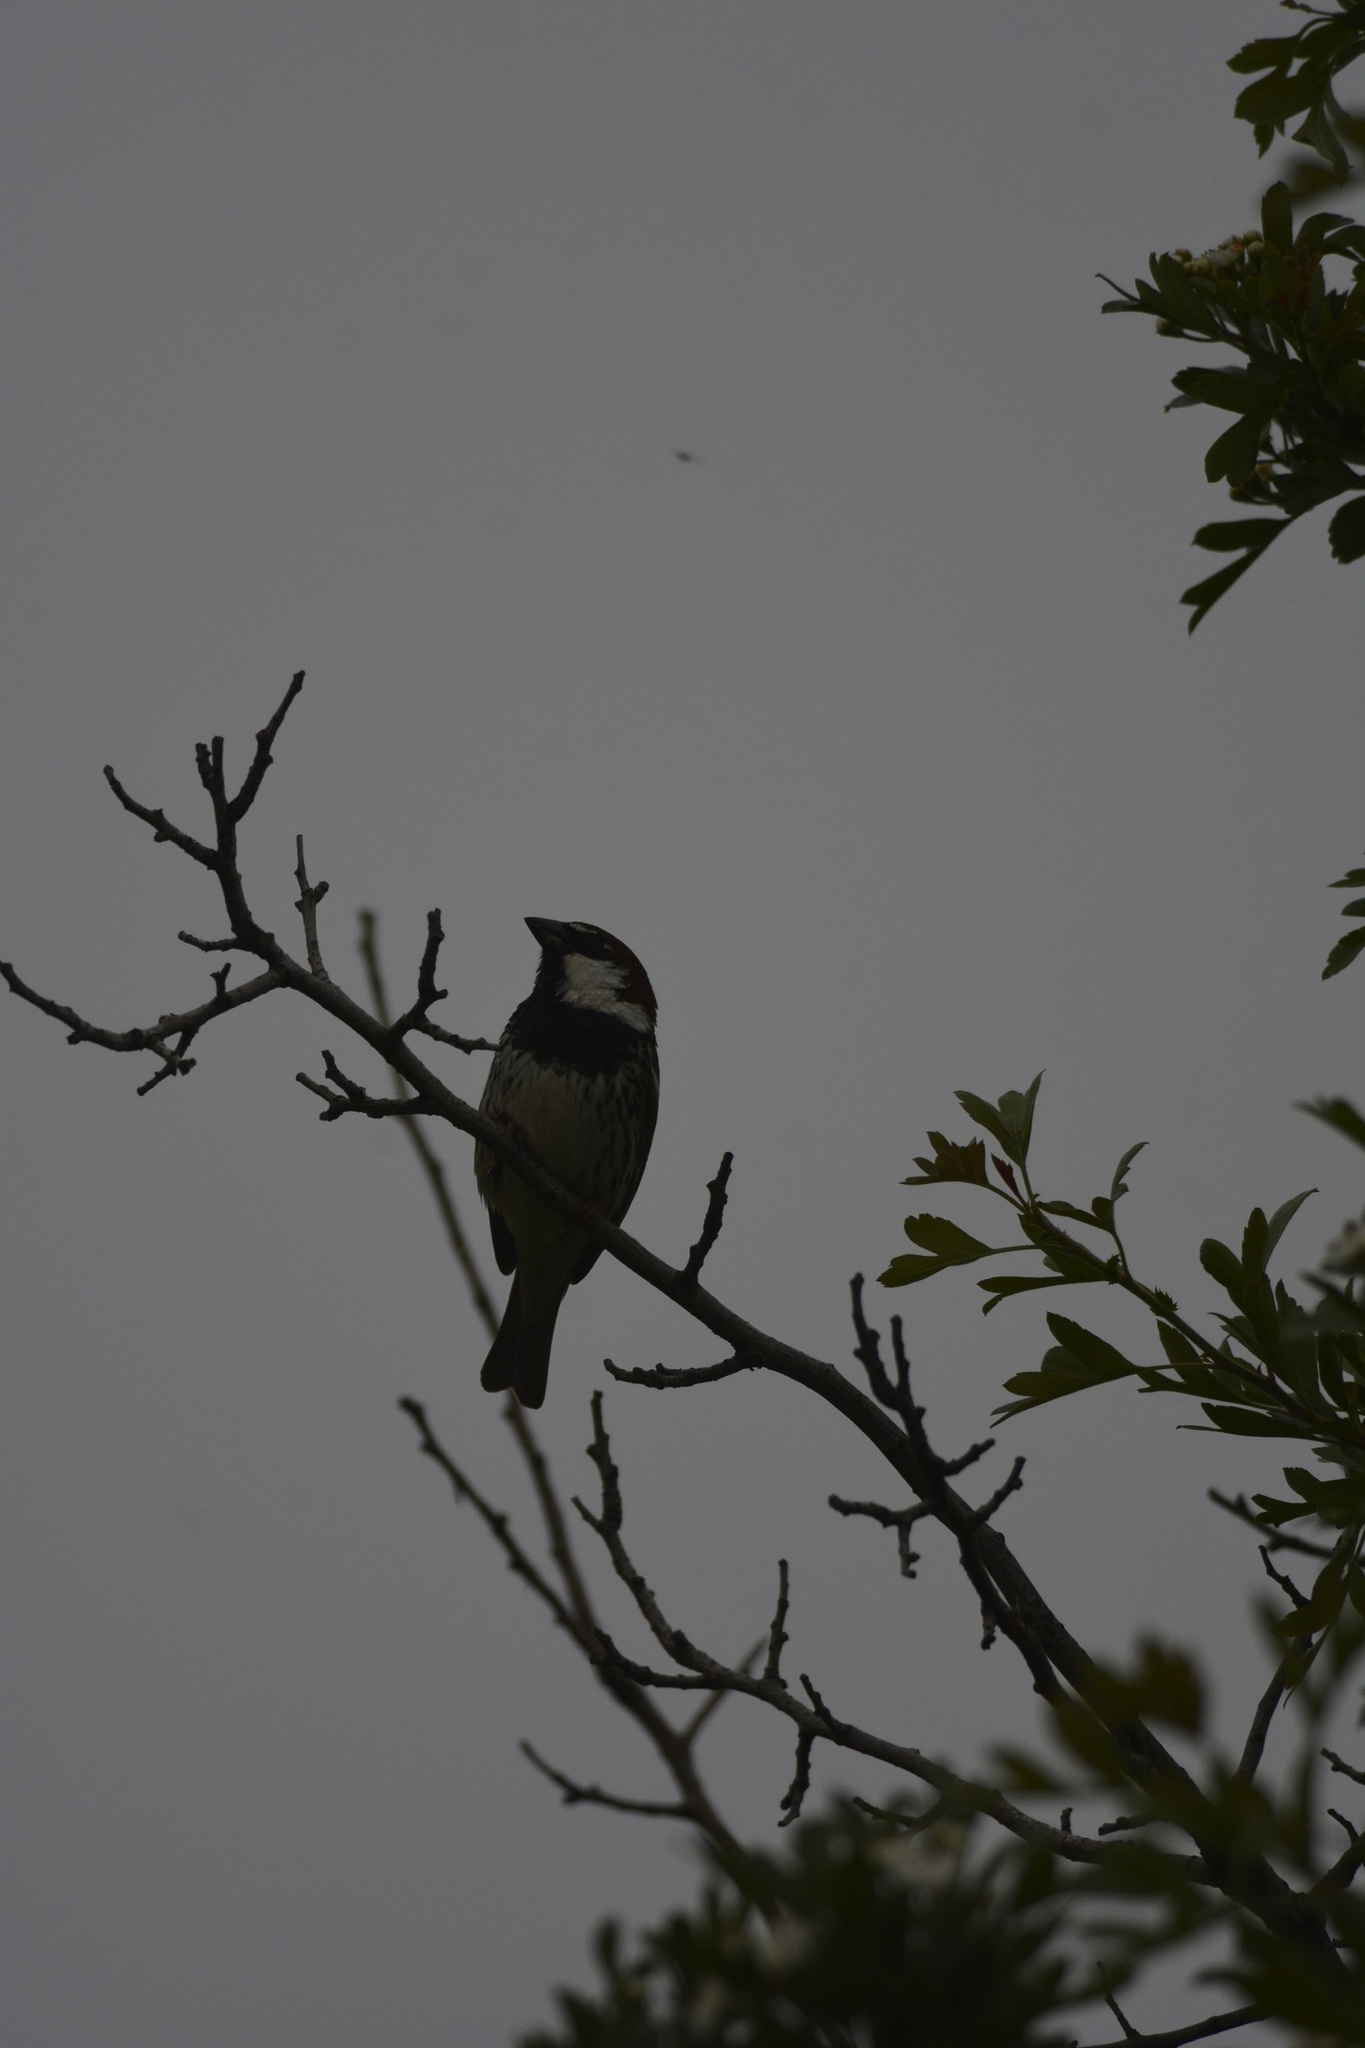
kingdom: Animalia
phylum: Chordata
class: Aves
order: Passeriformes
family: Passeridae
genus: Passer
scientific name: Passer hispaniolensis
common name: Spanish sparrow
